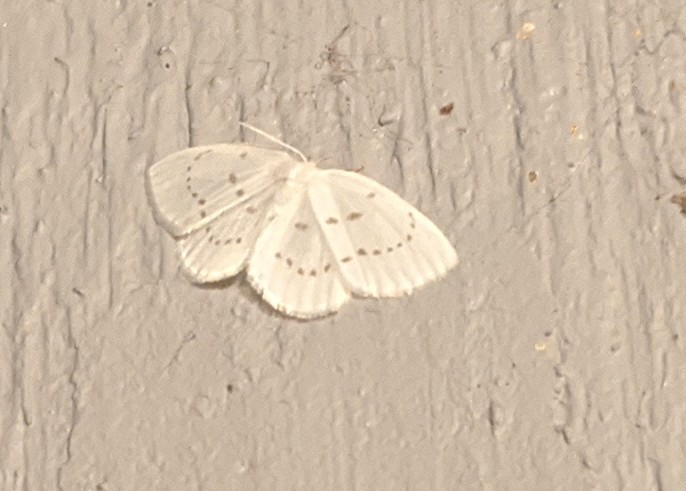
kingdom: Animalia
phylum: Arthropoda
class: Insecta
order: Lepidoptera
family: Drepanidae
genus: Eudeilinia
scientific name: Eudeilinia herminiata
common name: Northern eudeilinea moth
